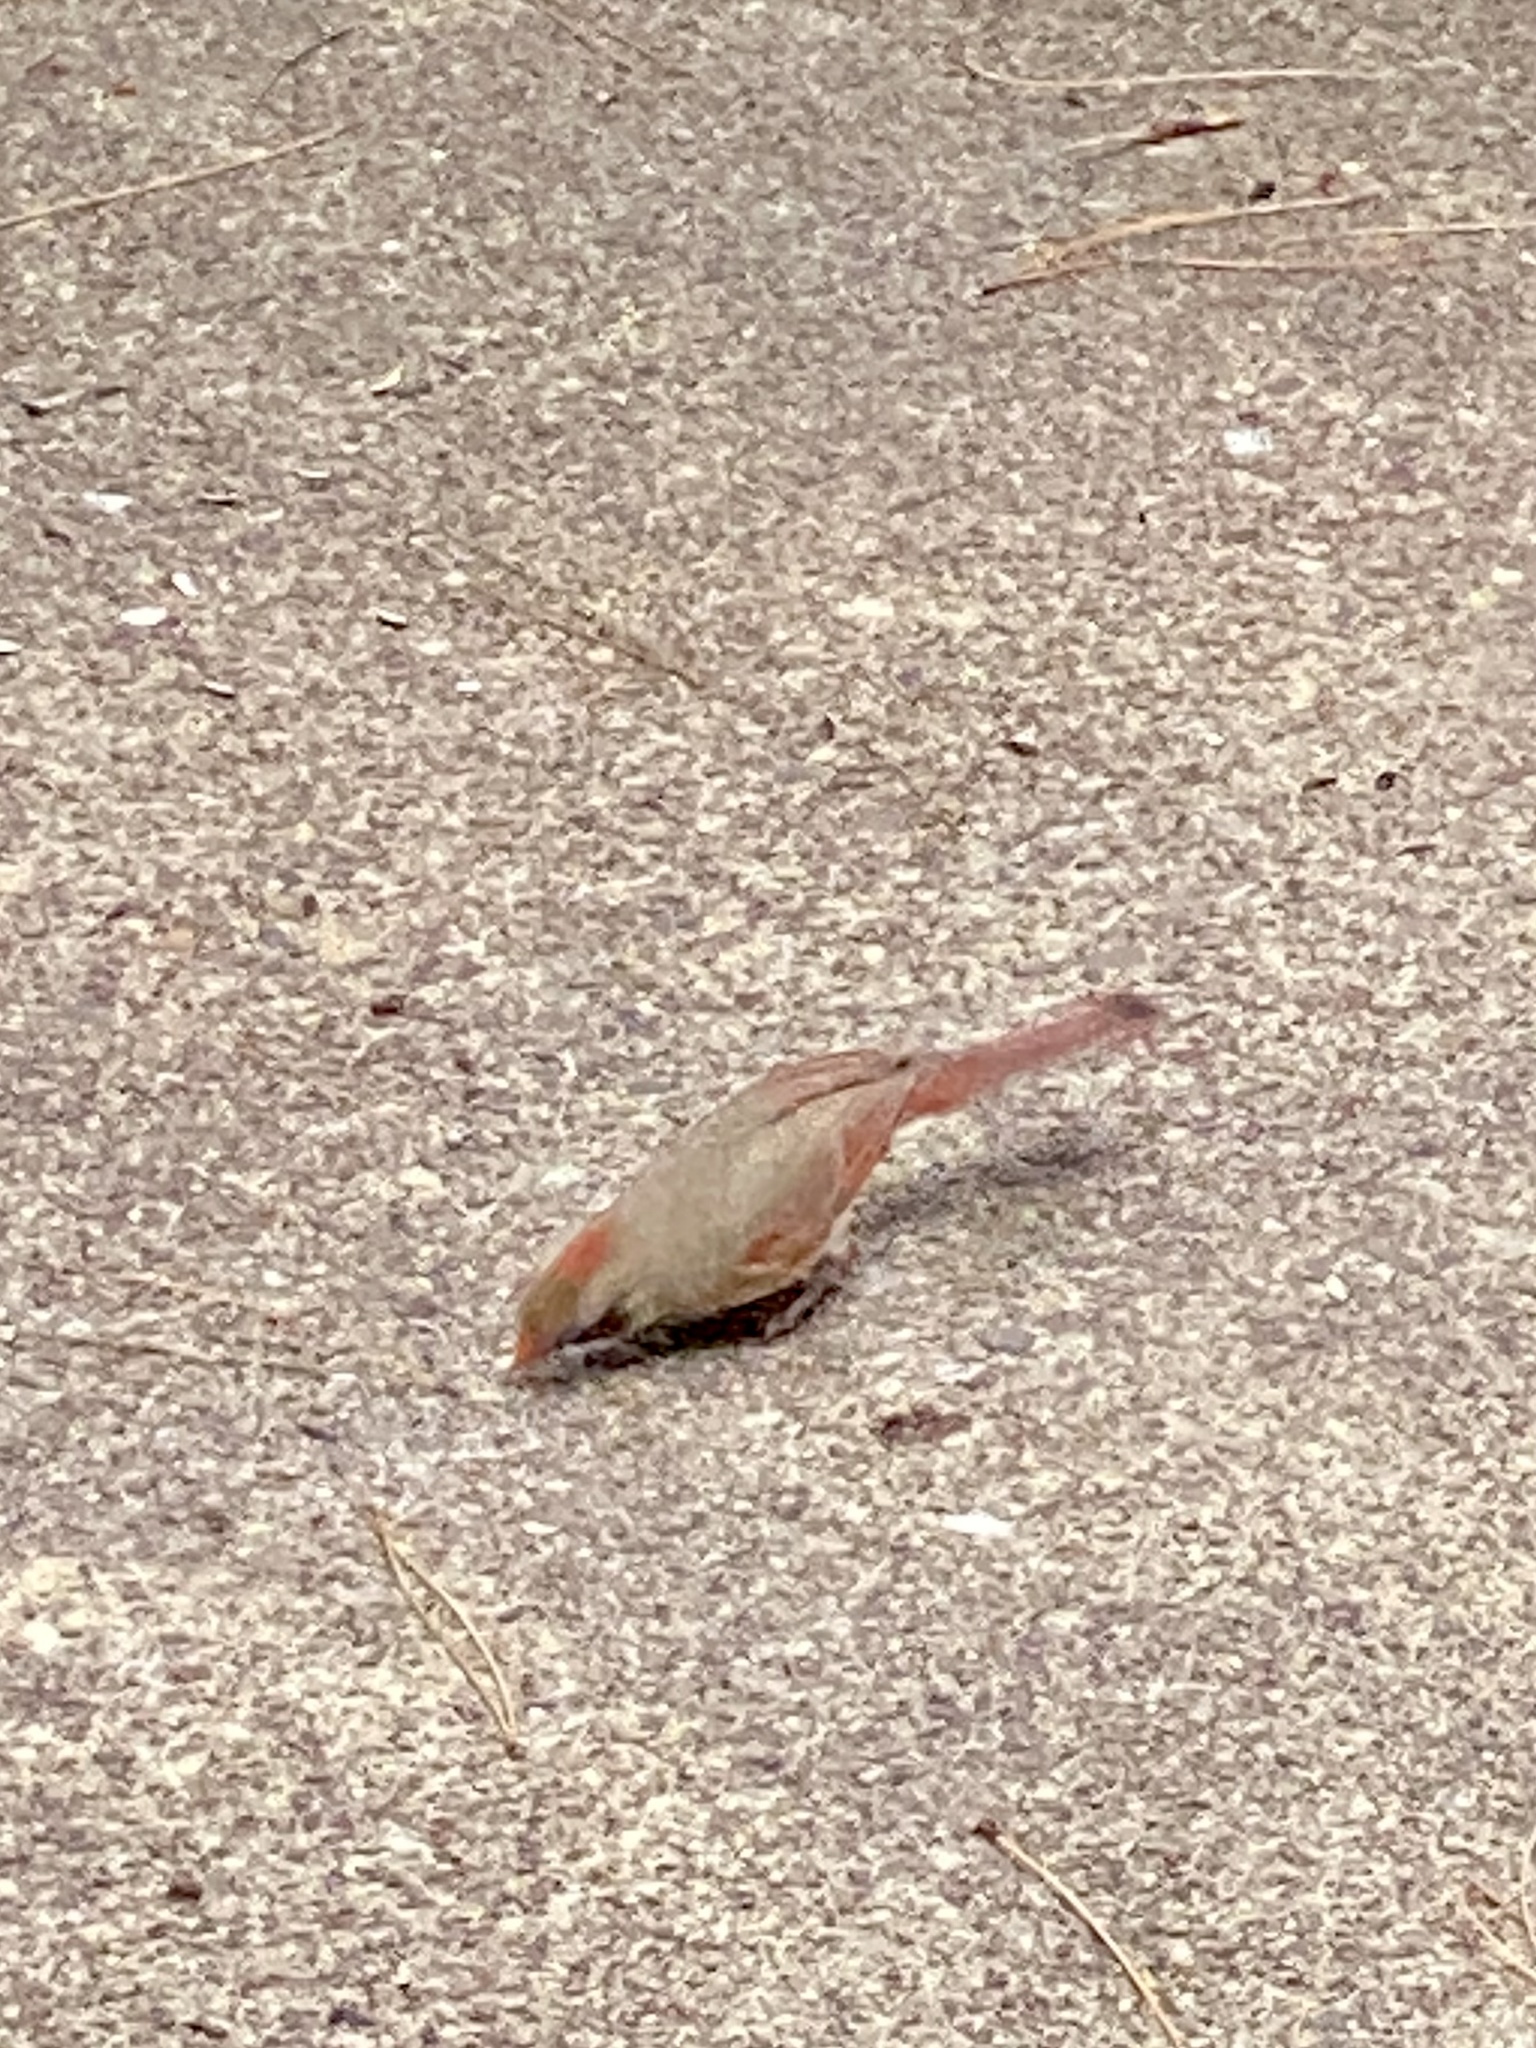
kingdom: Animalia
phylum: Chordata
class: Aves
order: Passeriformes
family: Cardinalidae
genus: Cardinalis
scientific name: Cardinalis cardinalis
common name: Northern cardinal
